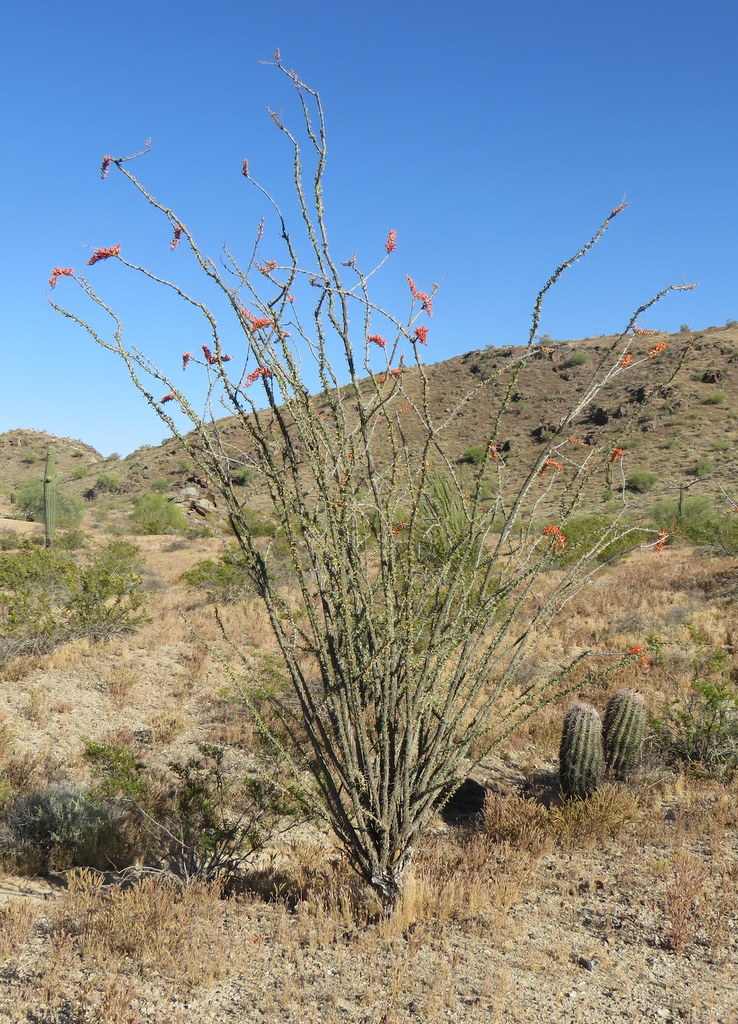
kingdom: Plantae
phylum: Tracheophyta
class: Magnoliopsida
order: Ericales
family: Fouquieriaceae
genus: Fouquieria
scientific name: Fouquieria splendens
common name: Vine-cactus
